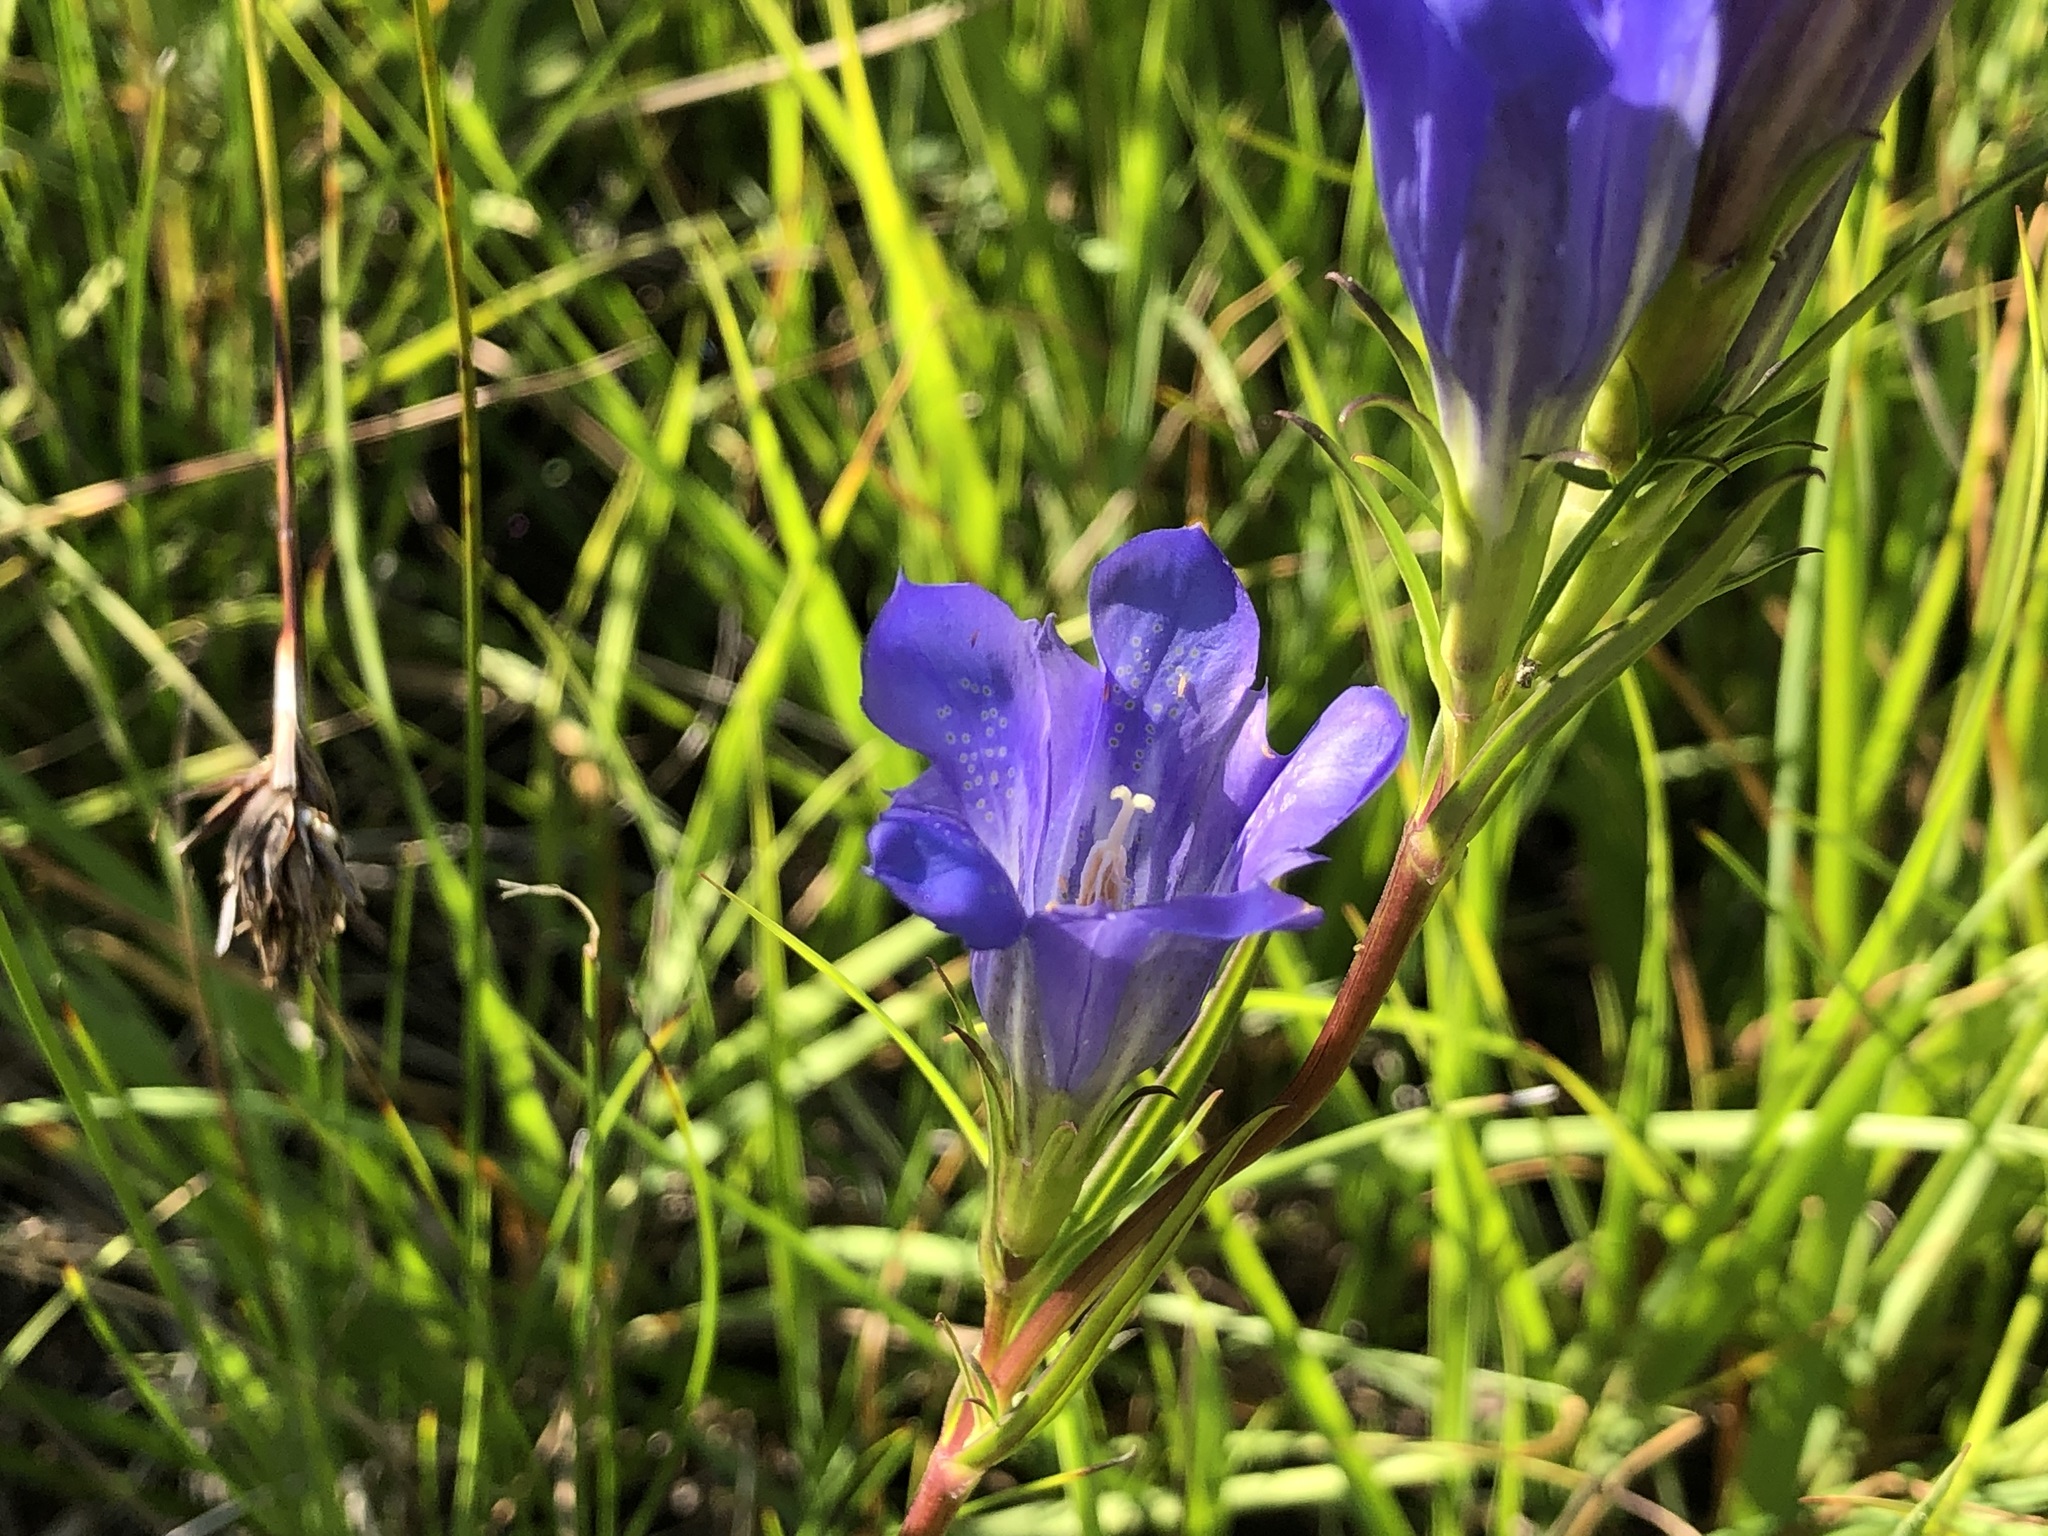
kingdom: Plantae
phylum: Tracheophyta
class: Magnoliopsida
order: Gentianales
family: Gentianaceae
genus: Gentiana
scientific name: Gentiana pneumonanthe
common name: Marsh gentian
